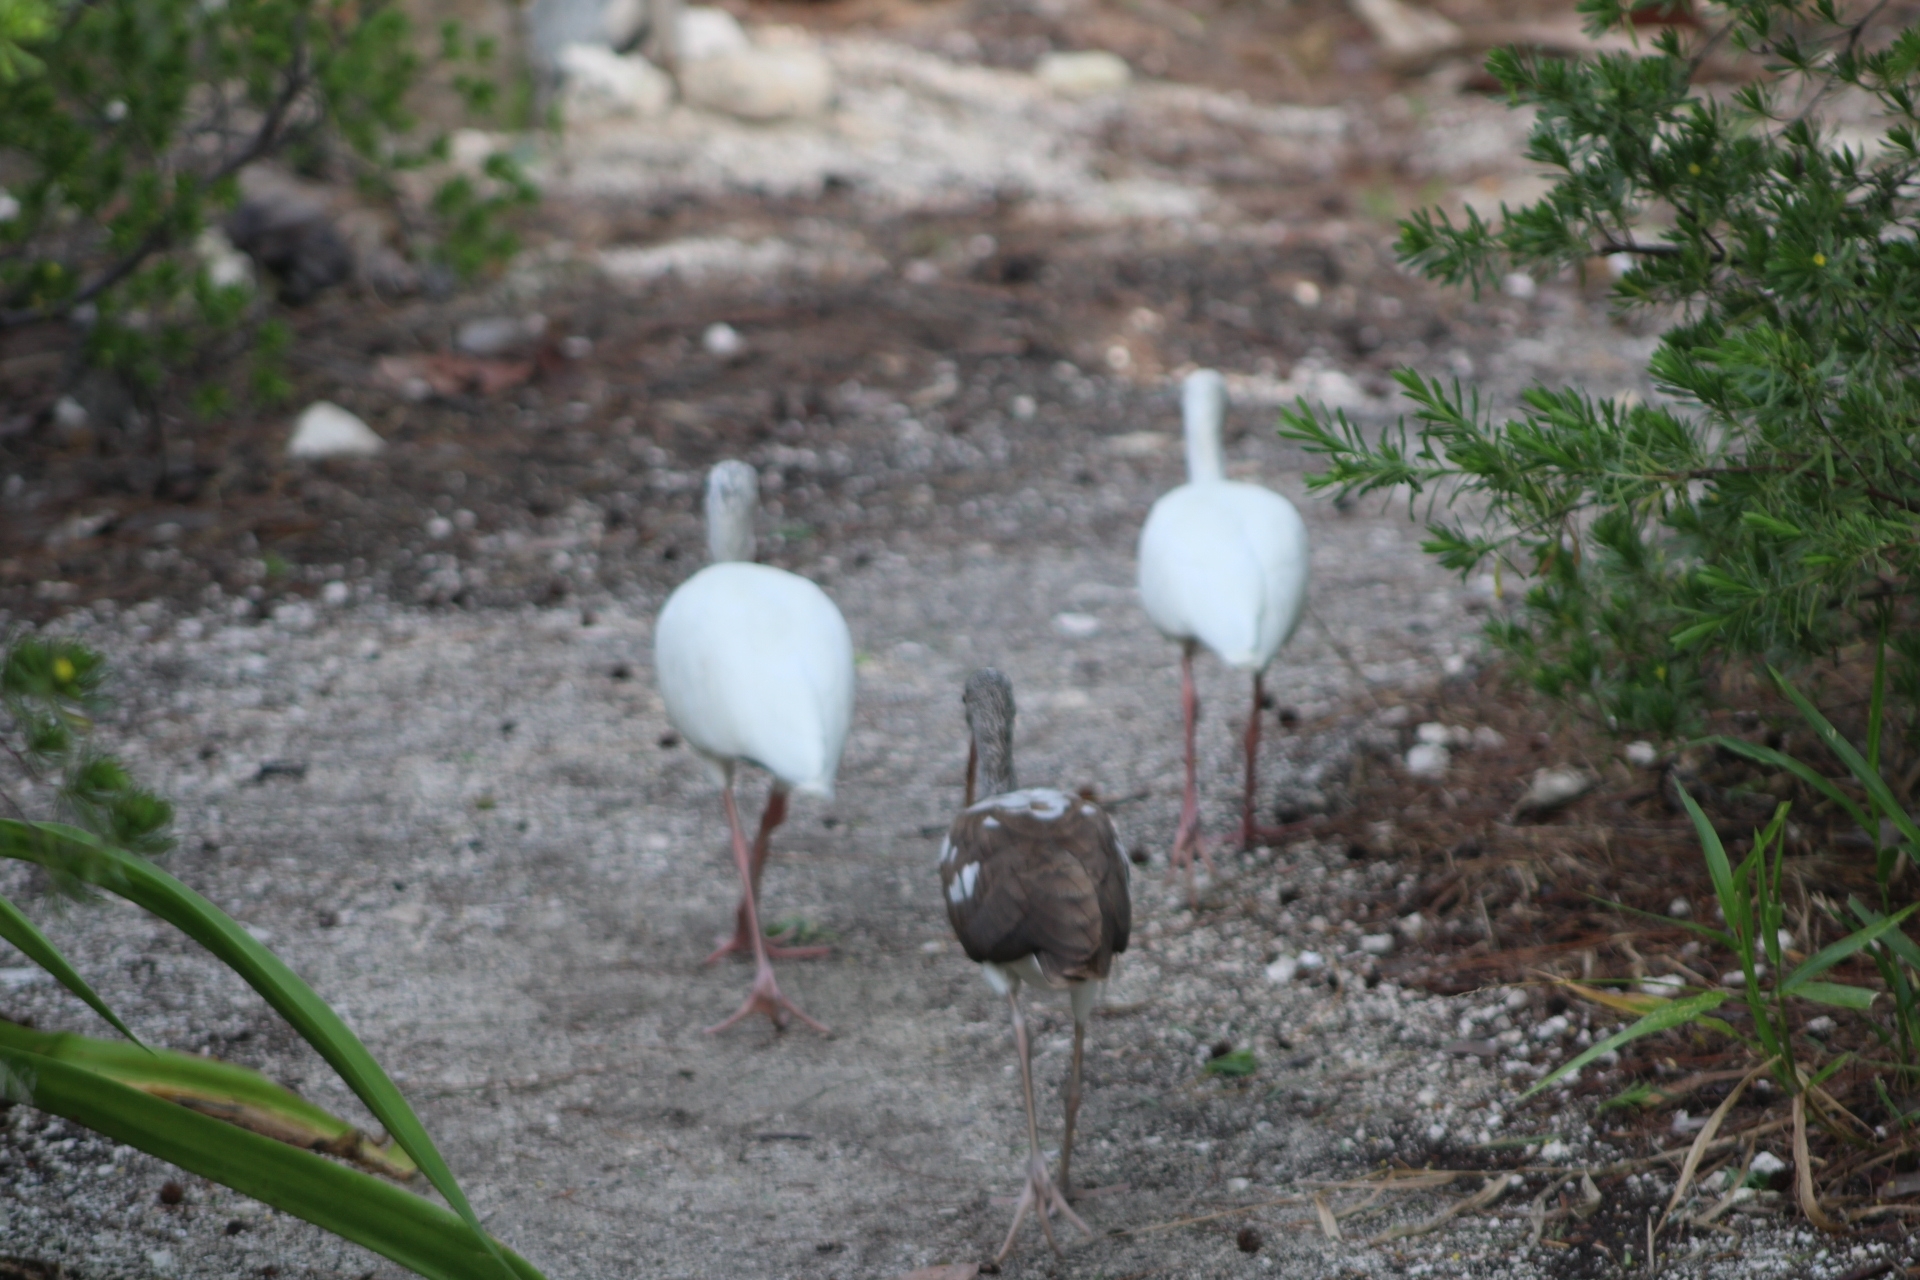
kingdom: Animalia
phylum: Chordata
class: Aves
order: Pelecaniformes
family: Threskiornithidae
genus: Eudocimus
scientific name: Eudocimus albus
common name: White ibis
